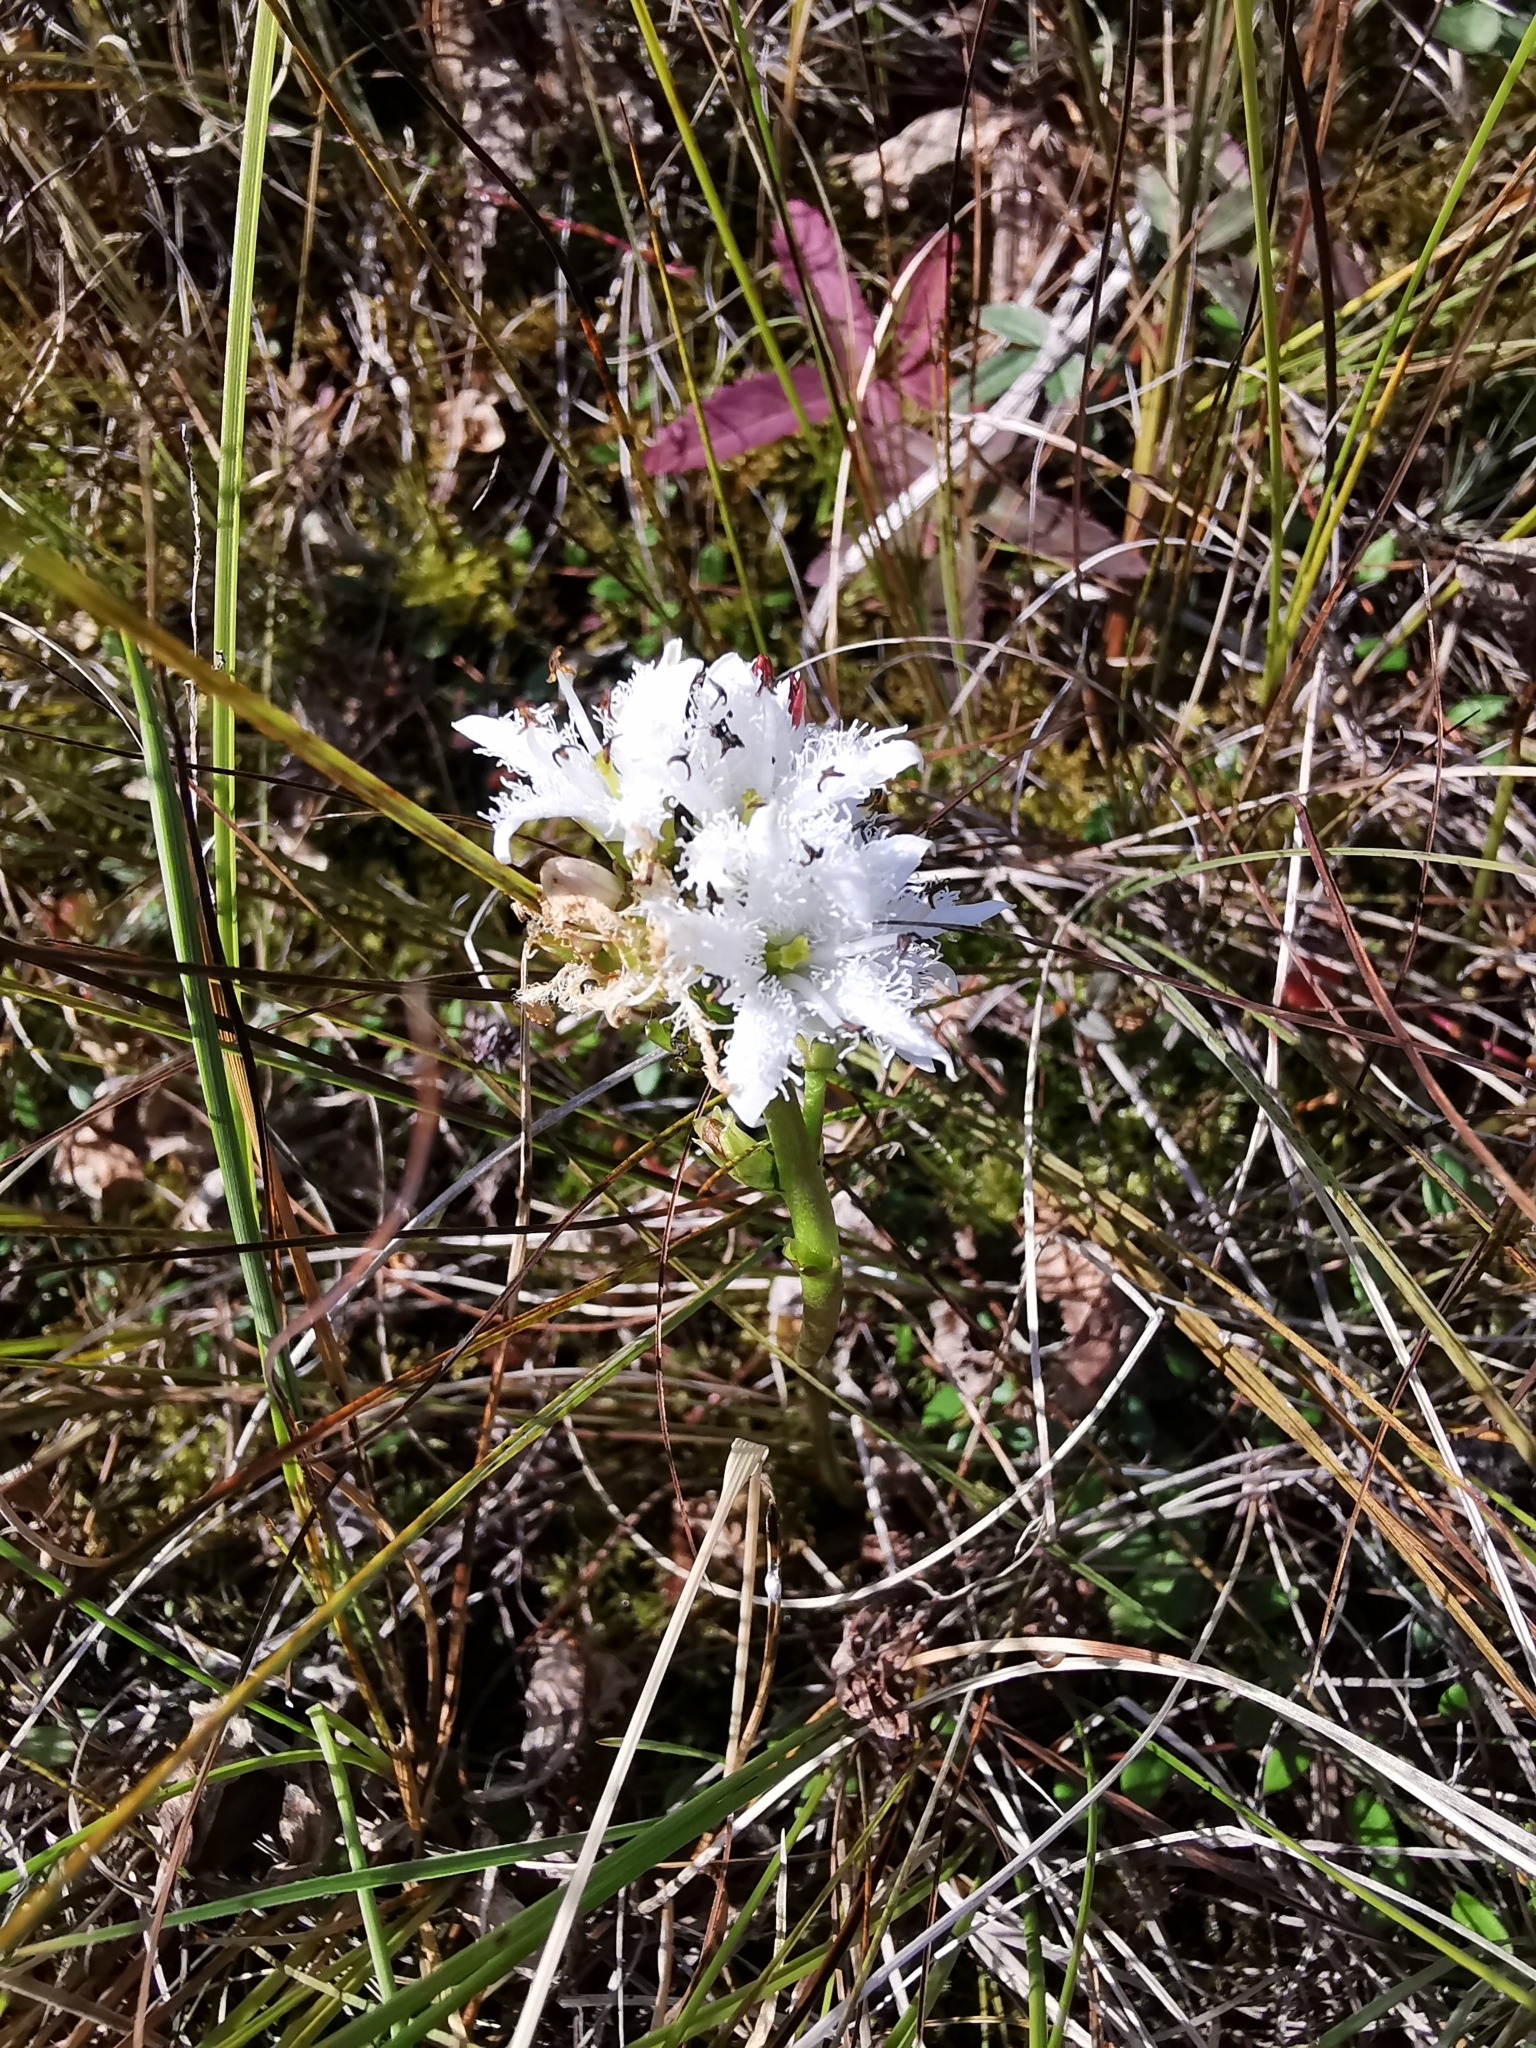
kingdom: Plantae
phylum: Tracheophyta
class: Magnoliopsida
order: Asterales
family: Menyanthaceae
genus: Menyanthes
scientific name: Menyanthes trifoliata
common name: Bogbean
